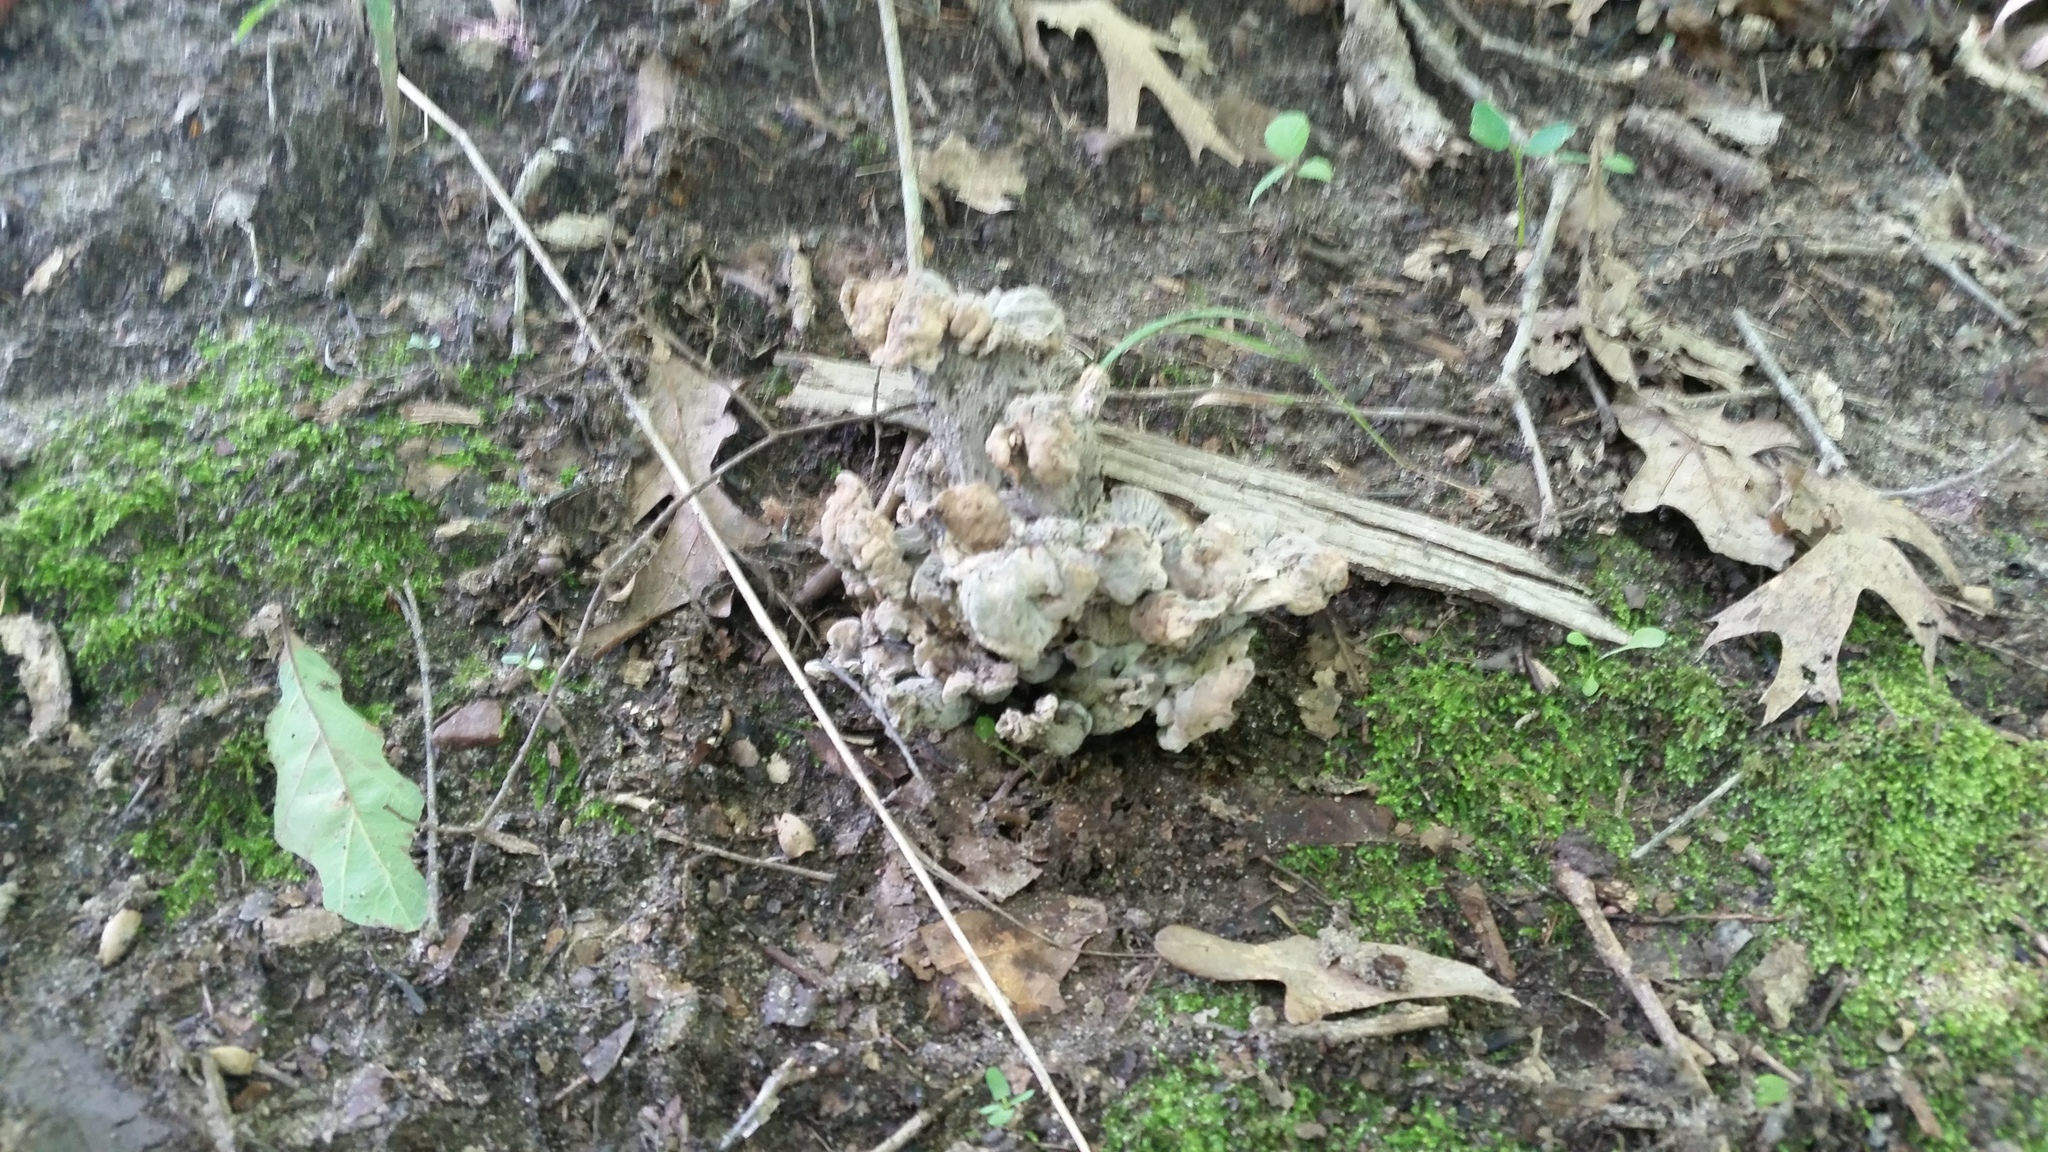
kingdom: Fungi
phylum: Basidiomycota
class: Agaricomycetes
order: Cantharellales
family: Hydnaceae
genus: Craterellus
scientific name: Craterellus foetidus
